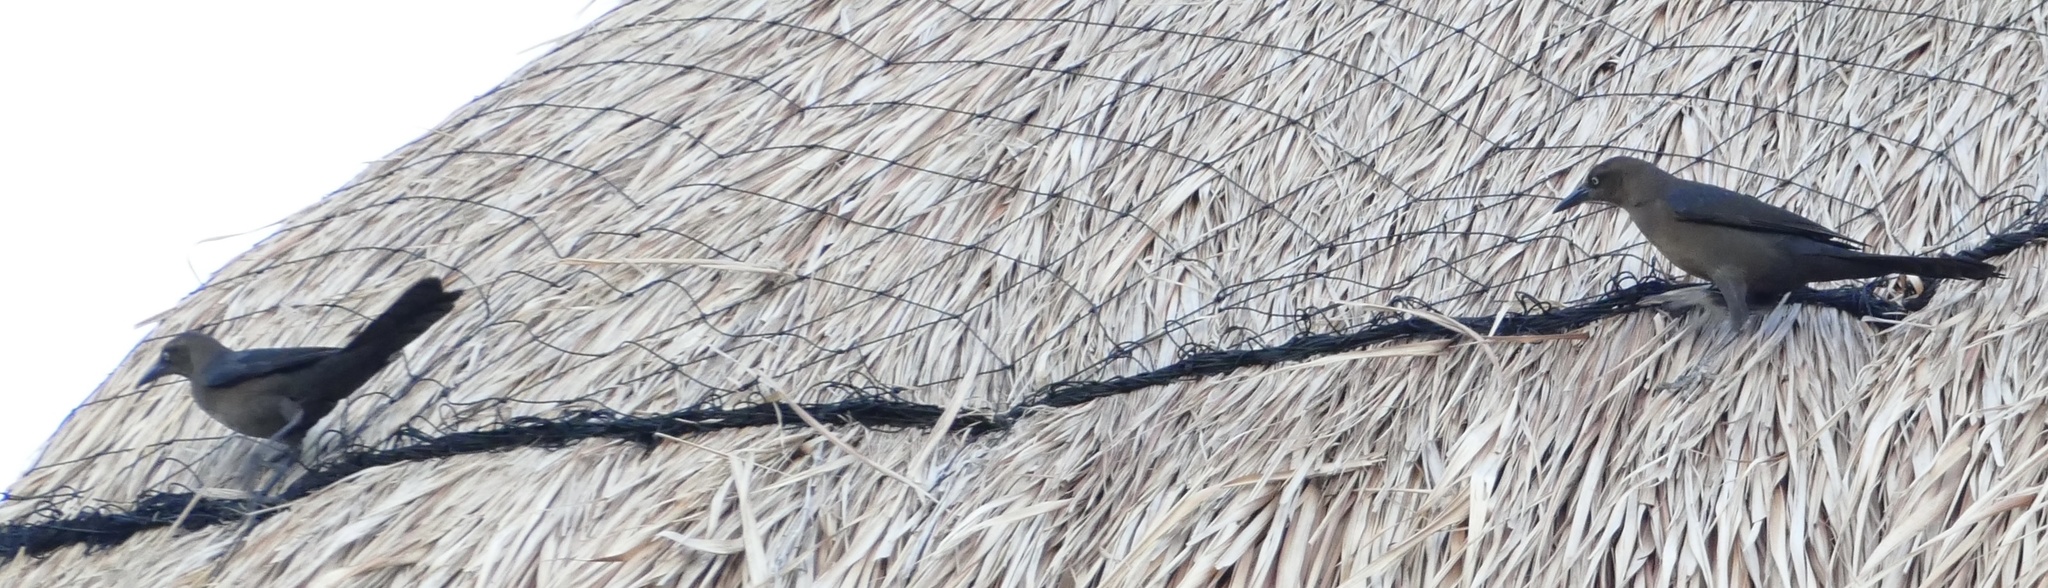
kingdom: Animalia
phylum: Chordata
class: Aves
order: Passeriformes
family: Icteridae
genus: Quiscalus
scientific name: Quiscalus mexicanus
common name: Great-tailed grackle
